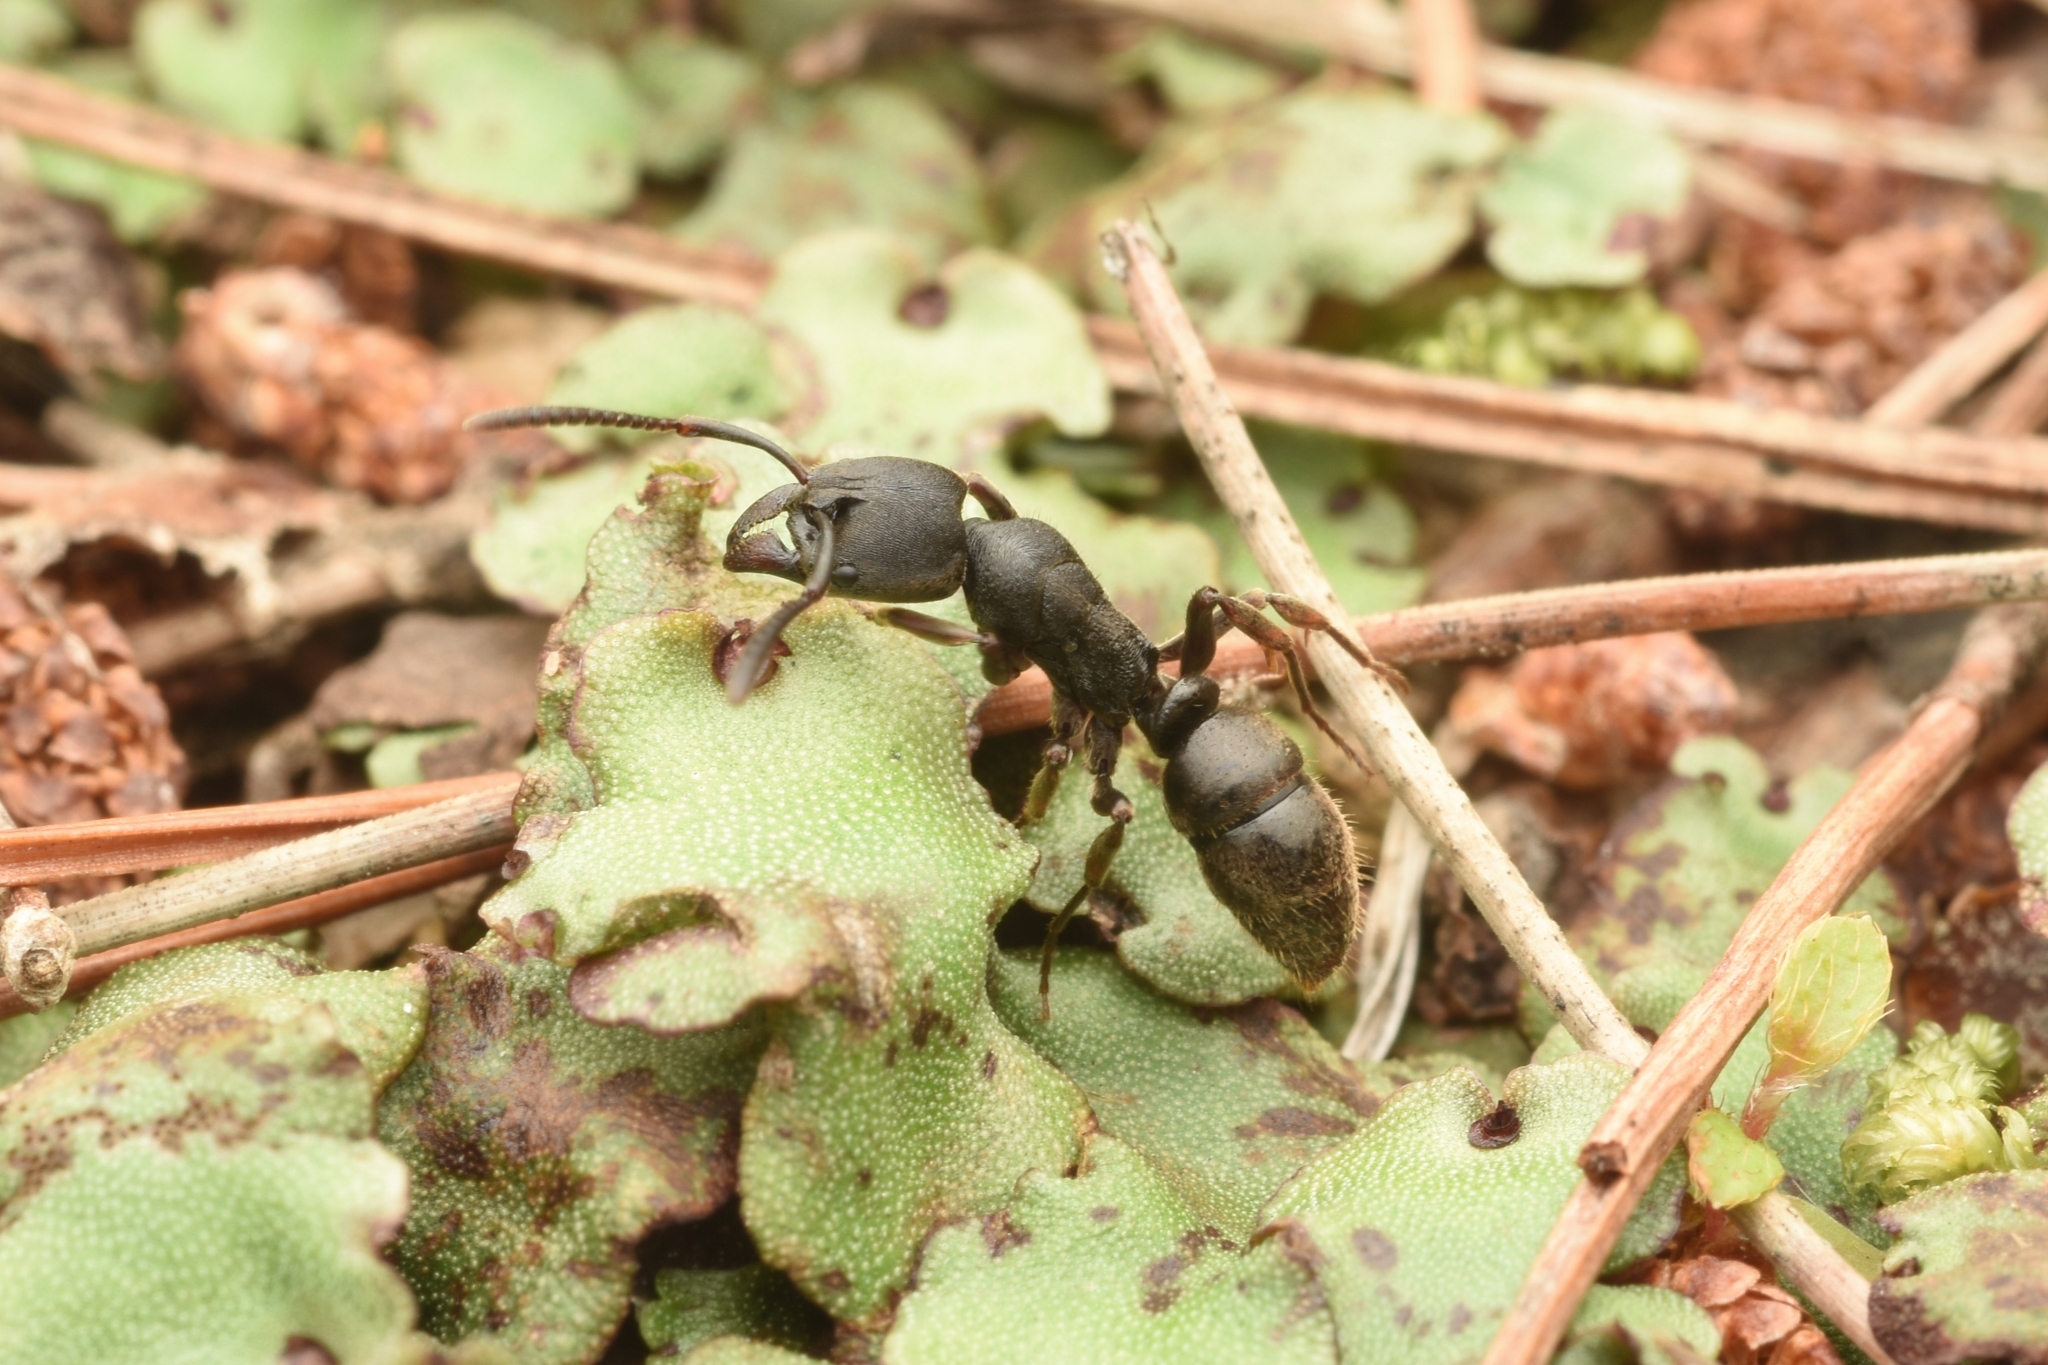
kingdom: Animalia
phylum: Arthropoda
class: Insecta
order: Hymenoptera
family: Formicidae
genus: Ectomomyrmex
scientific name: Ectomomyrmex javanus
